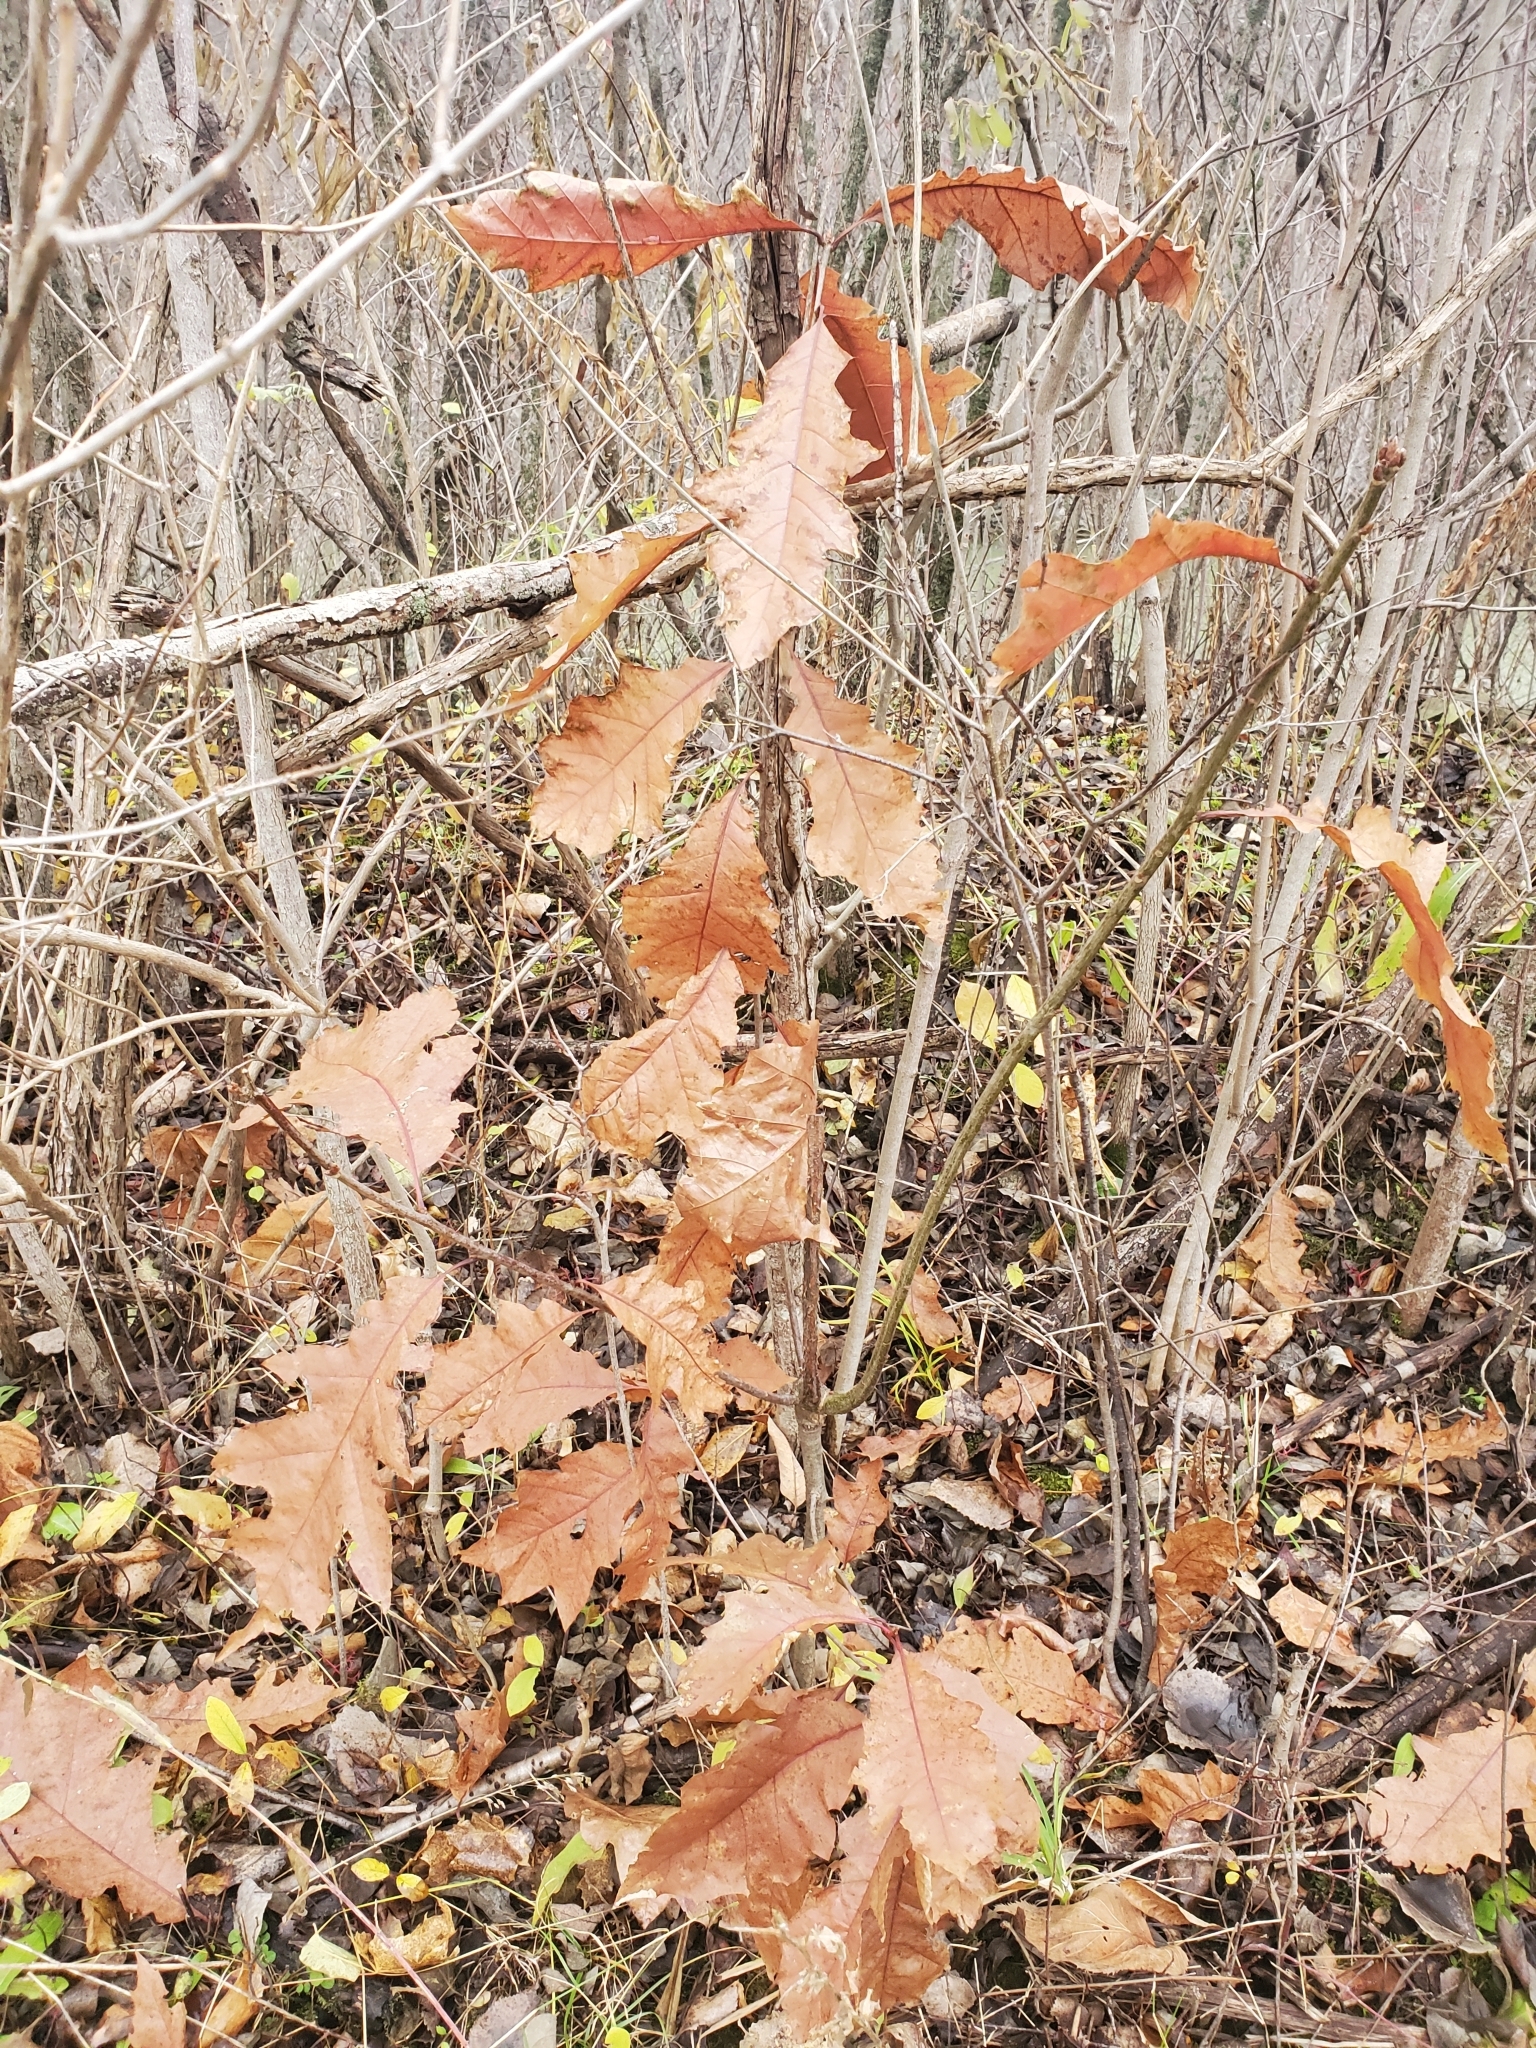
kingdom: Plantae
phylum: Tracheophyta
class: Magnoliopsida
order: Fagales
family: Fagaceae
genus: Quercus
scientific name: Quercus rubra
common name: Red oak
